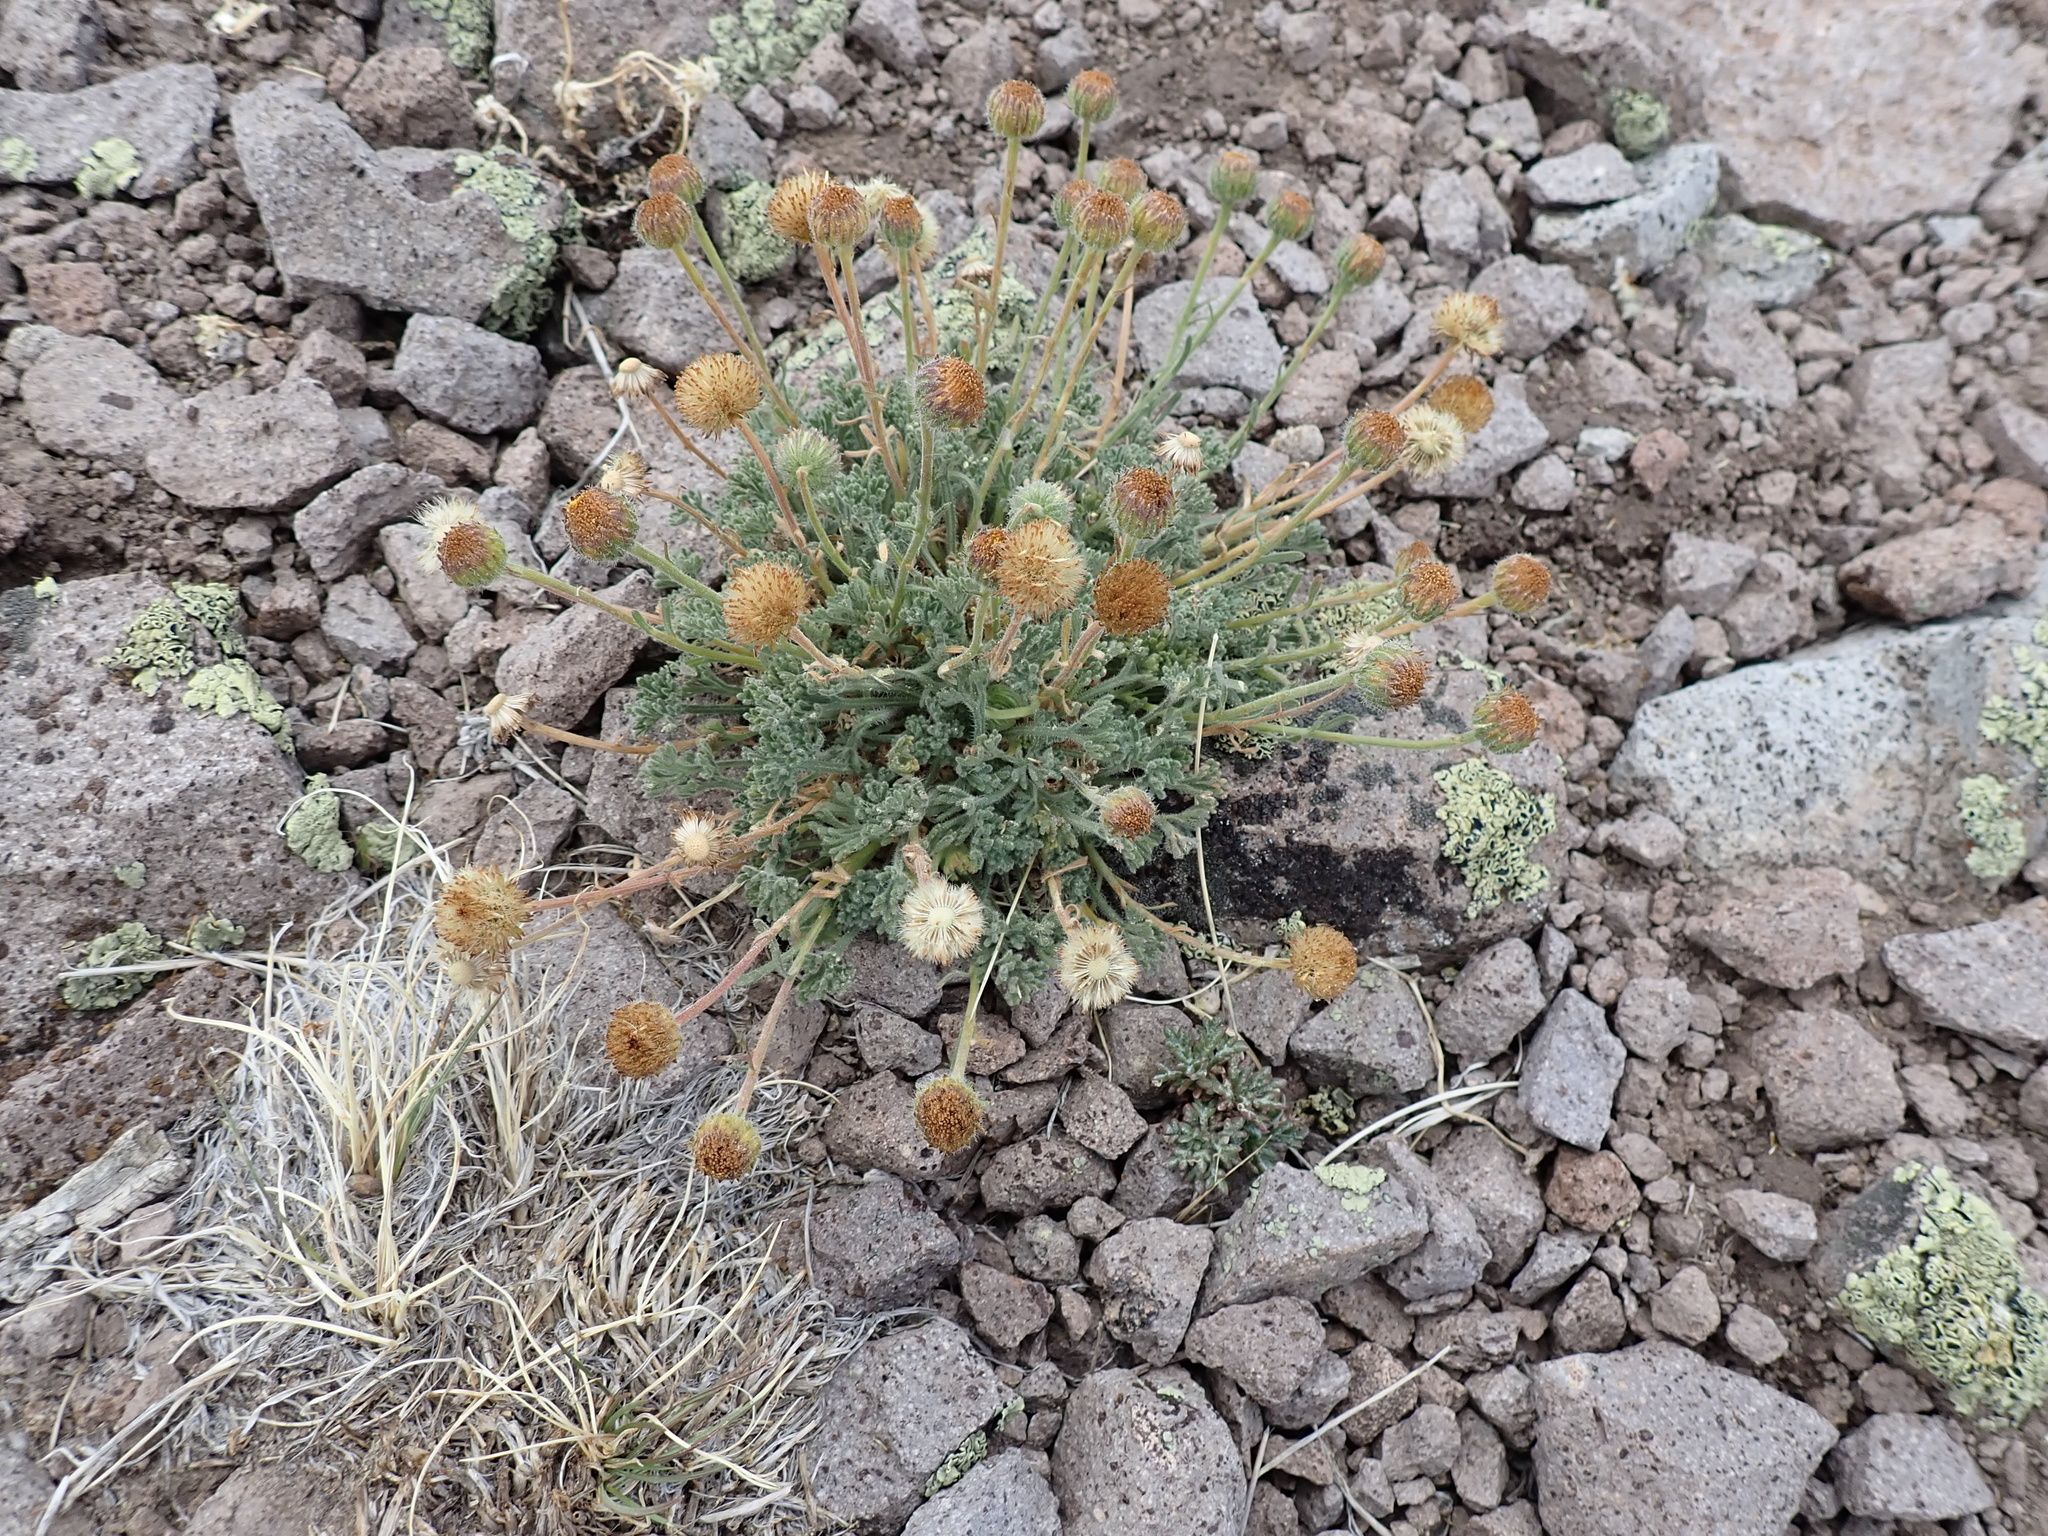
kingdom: Plantae
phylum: Tracheophyta
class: Magnoliopsida
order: Asterales
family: Asteraceae
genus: Erigeron
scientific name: Erigeron compositus
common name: Dwarf mountain fleabane
